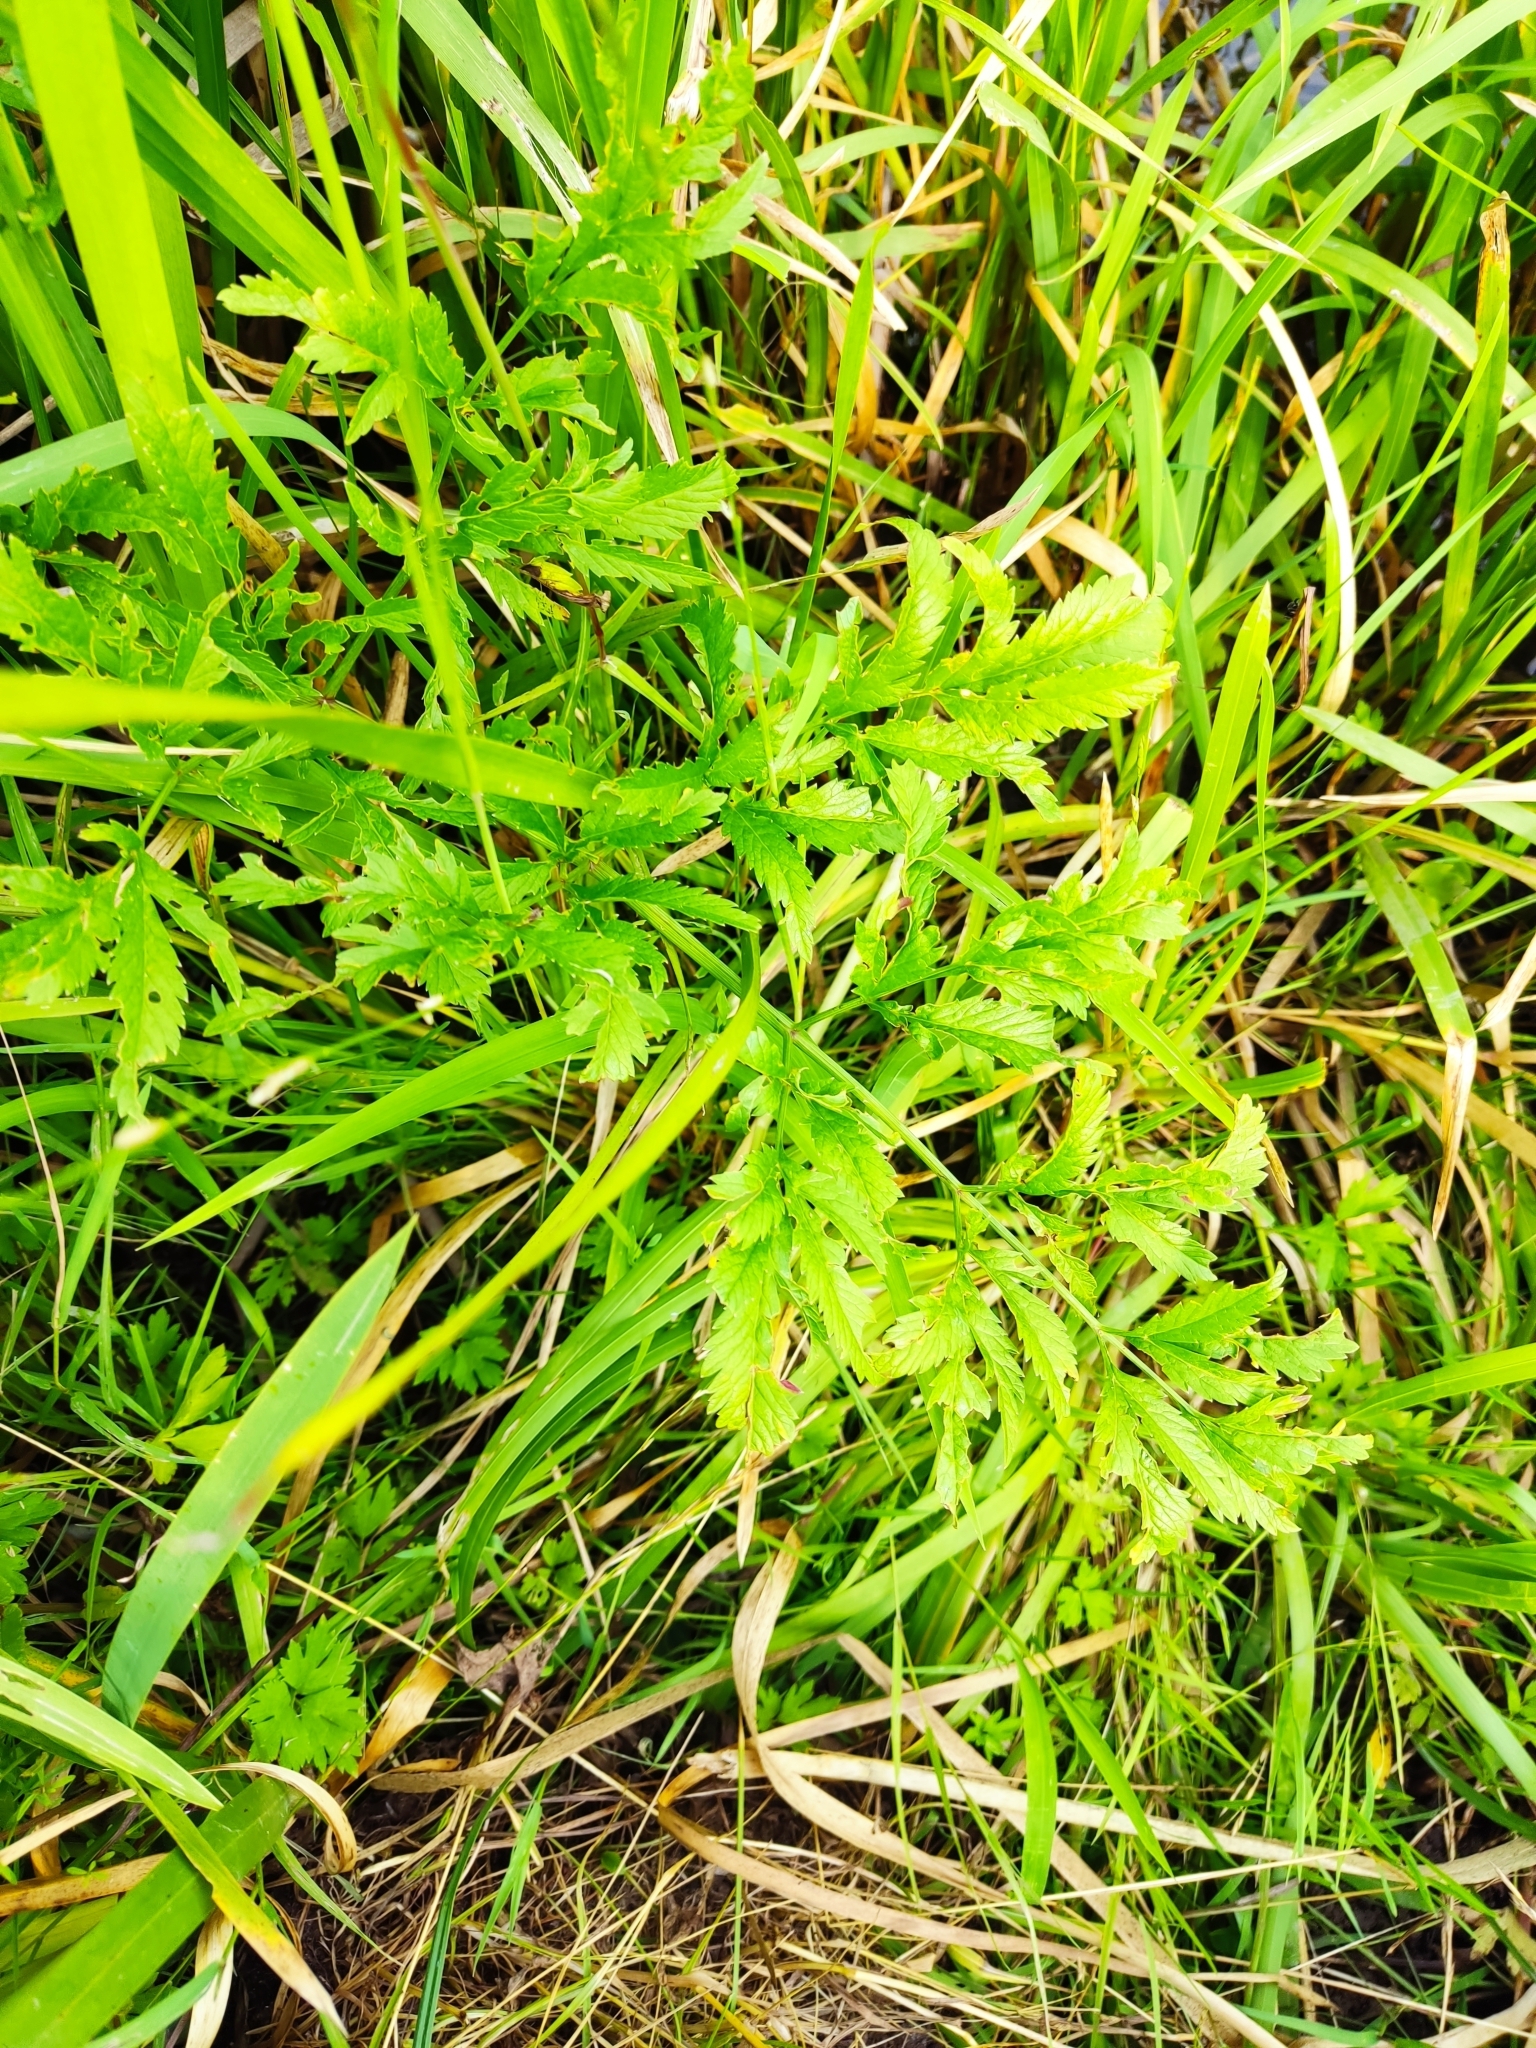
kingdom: Plantae
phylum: Tracheophyta
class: Magnoliopsida
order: Apiales
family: Apiaceae
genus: Cicuta
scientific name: Cicuta virosa
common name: Cowbane
